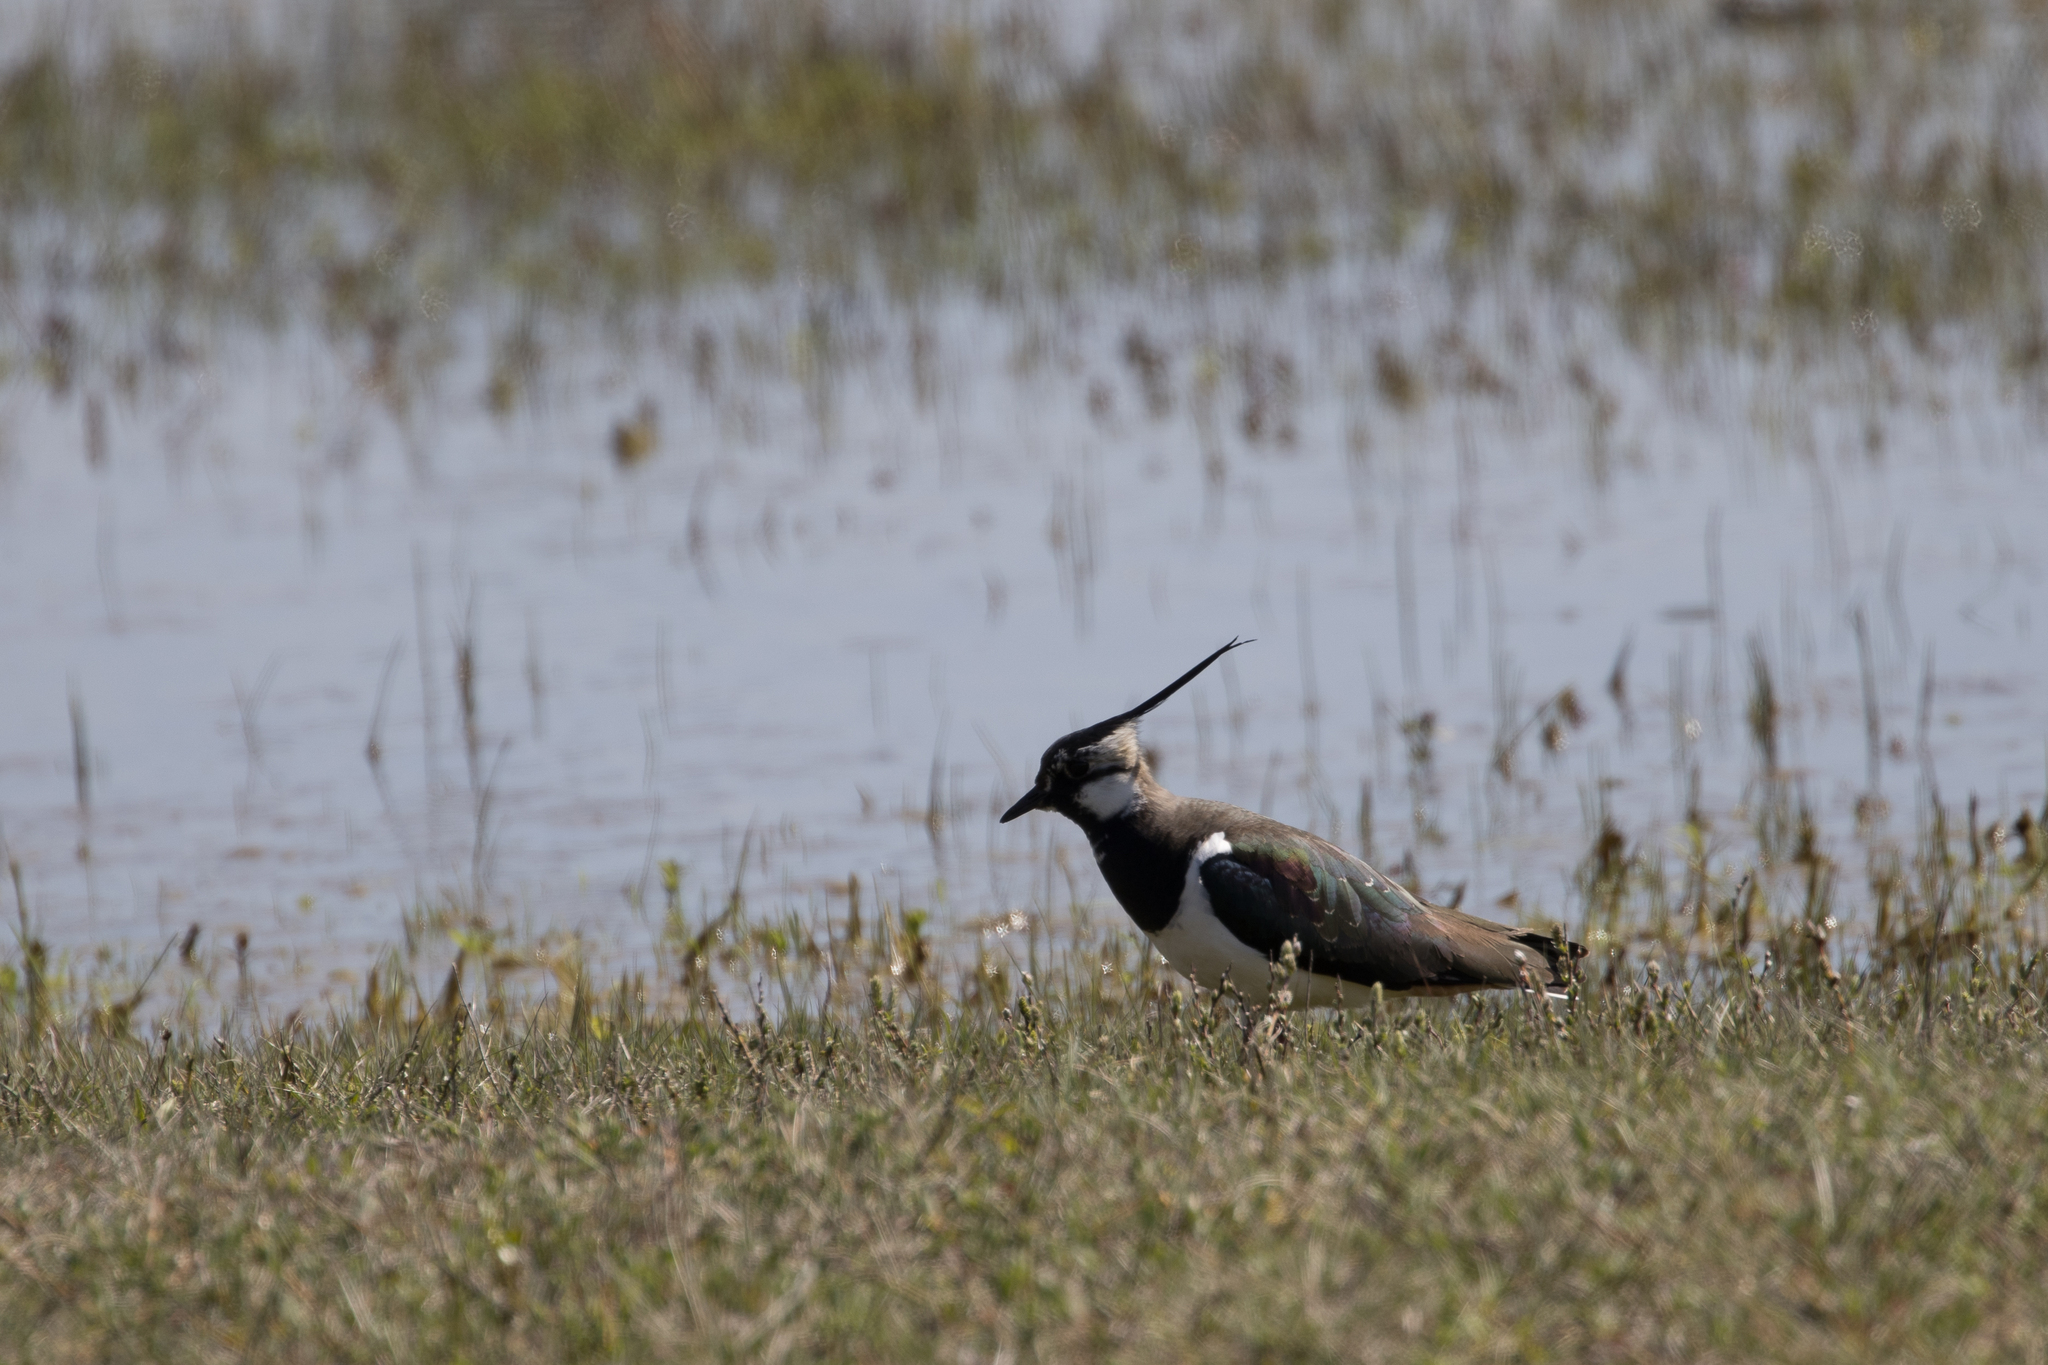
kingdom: Animalia
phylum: Chordata
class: Aves
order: Charadriiformes
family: Charadriidae
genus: Vanellus
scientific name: Vanellus vanellus
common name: Northern lapwing
